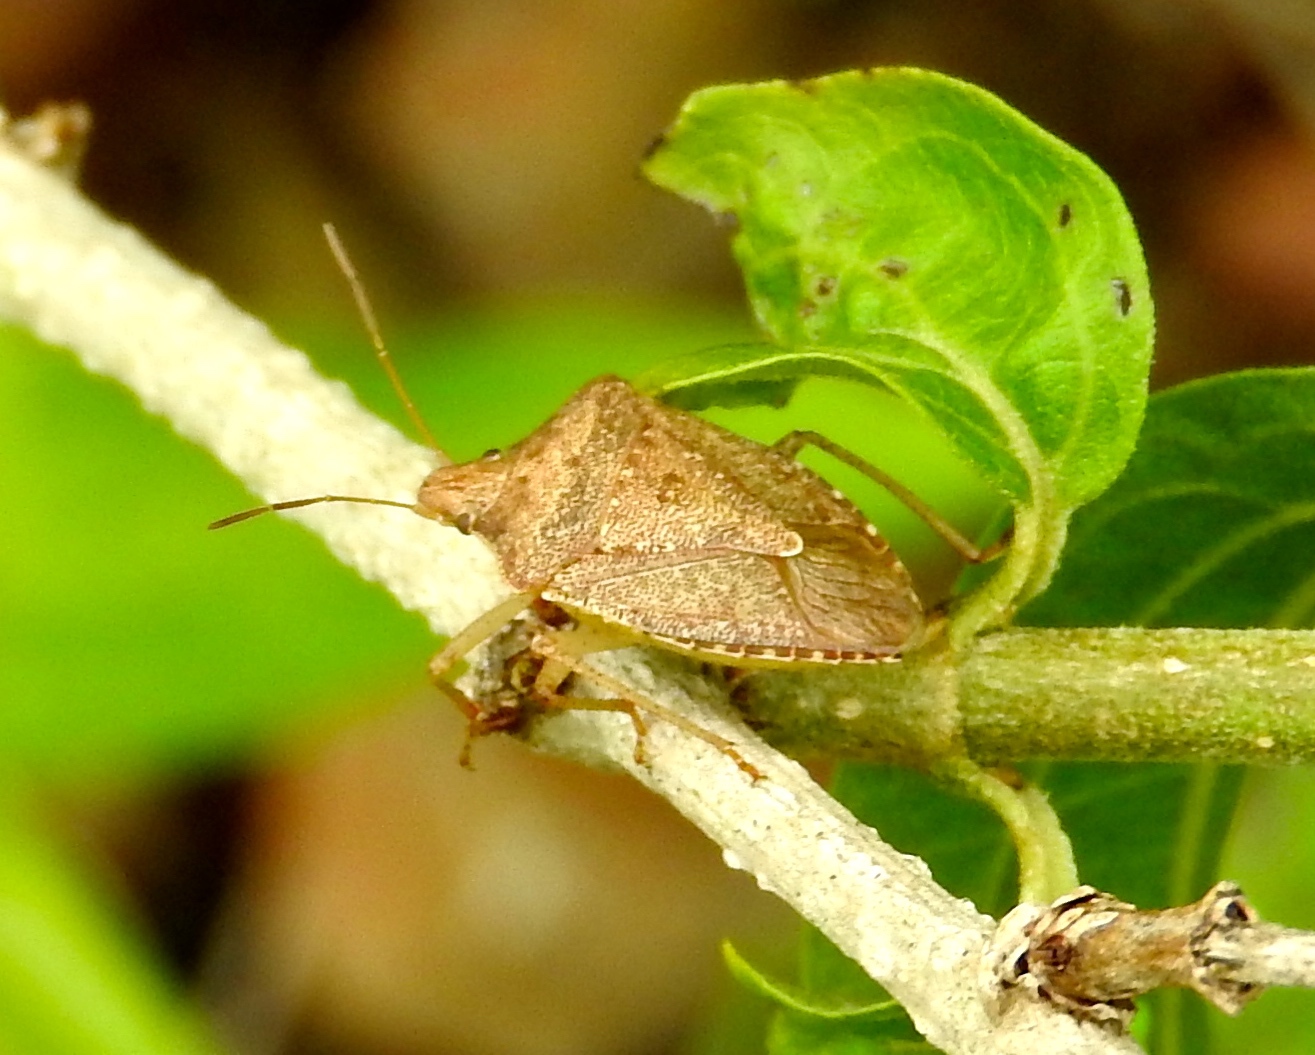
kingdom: Animalia
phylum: Arthropoda
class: Insecta
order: Hemiptera
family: Pentatomidae
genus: Euschistus
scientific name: Euschistus
